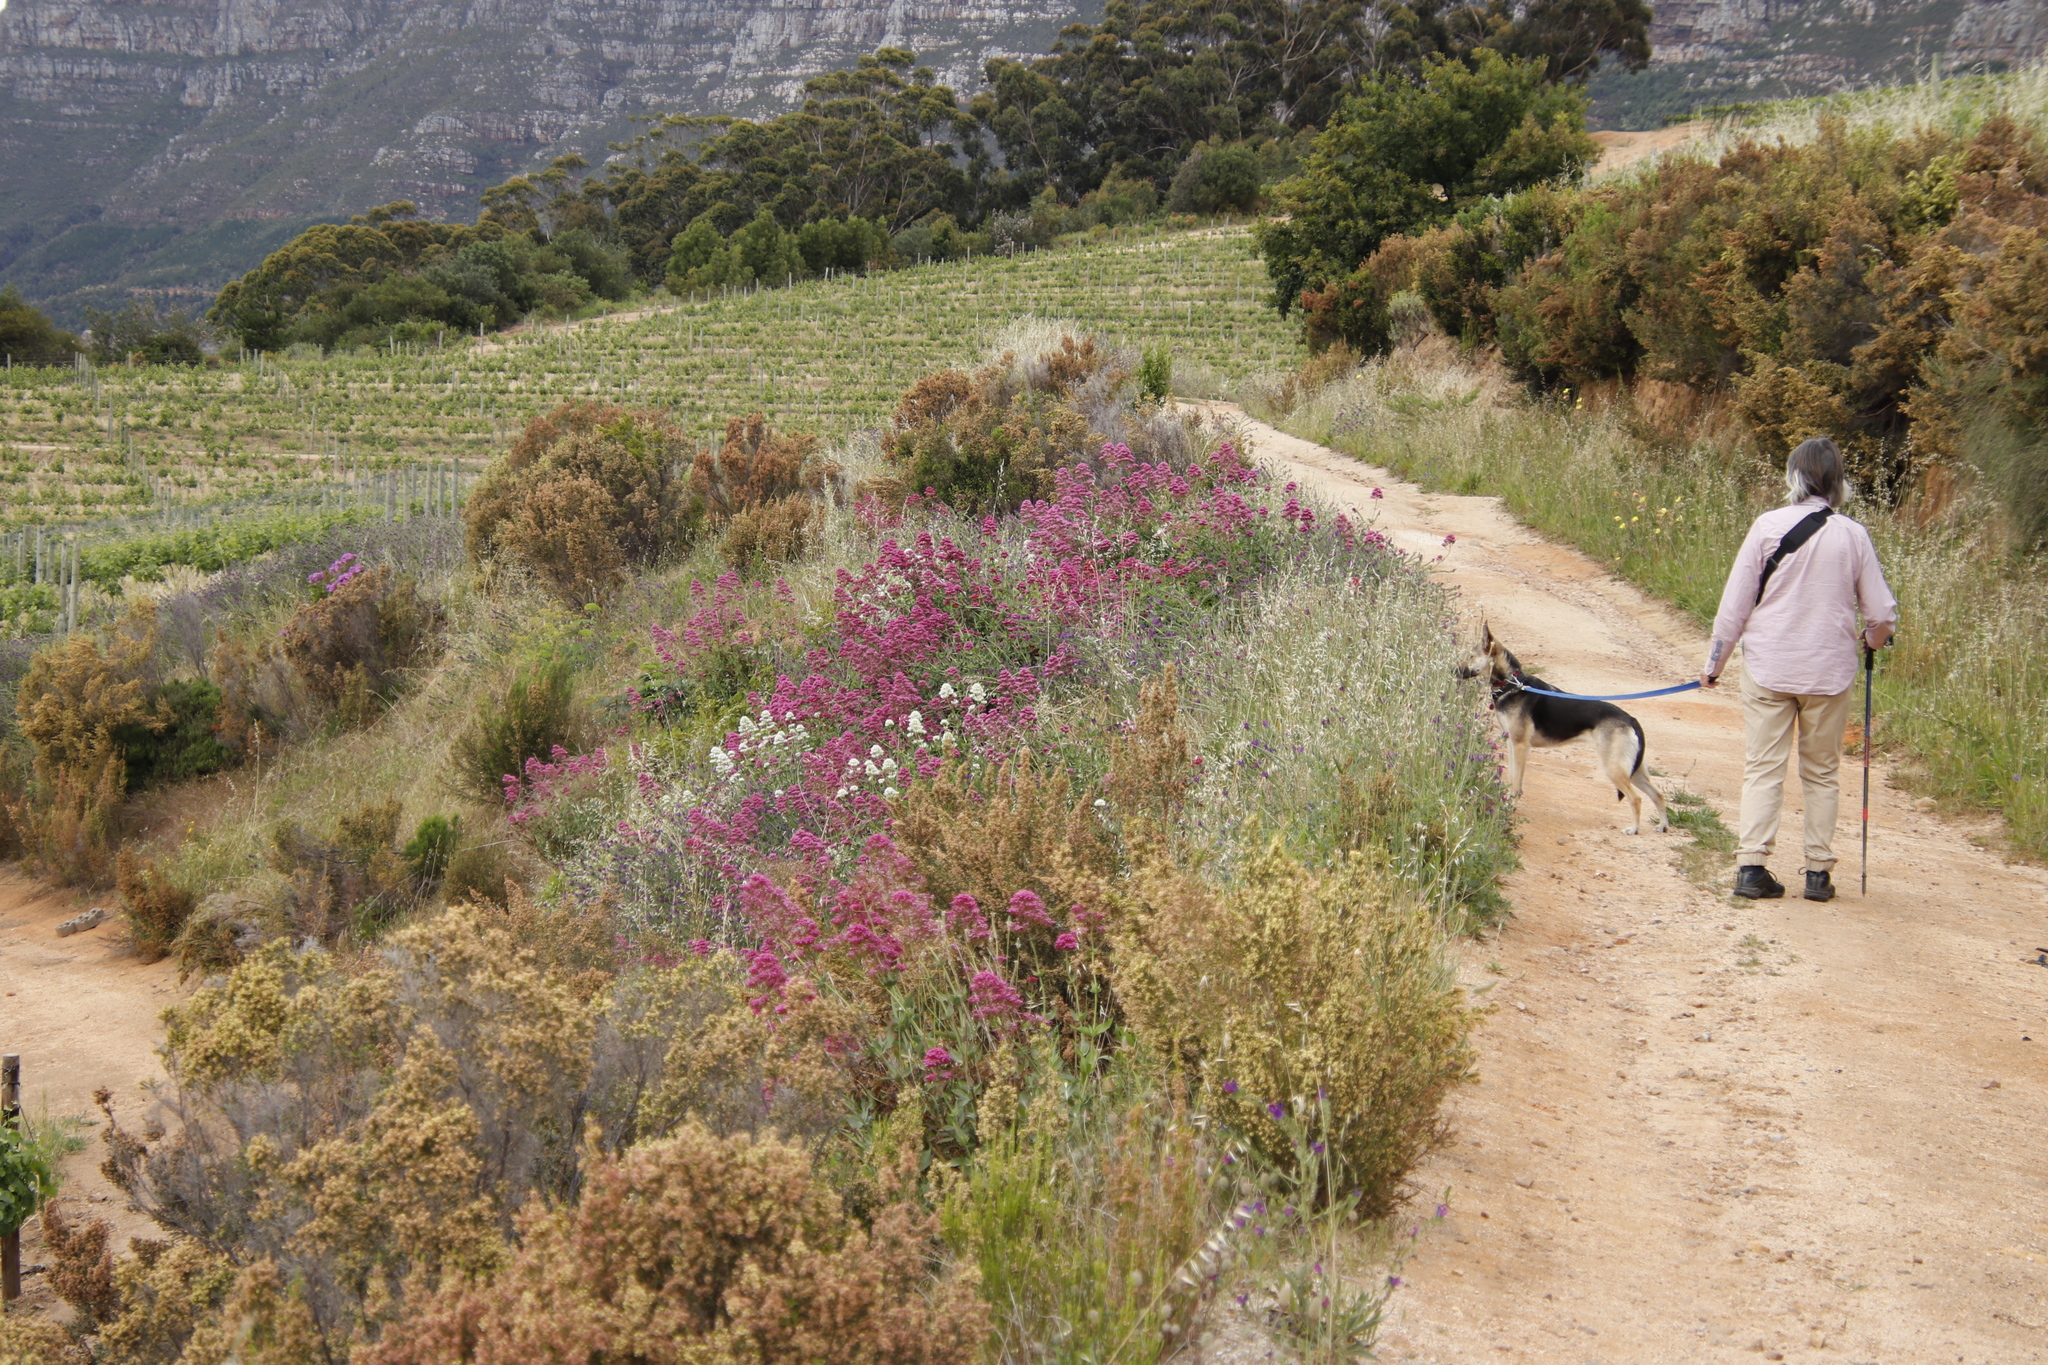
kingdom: Plantae
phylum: Tracheophyta
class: Magnoliopsida
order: Dipsacales
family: Caprifoliaceae
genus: Centranthus
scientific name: Centranthus ruber
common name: Red valerian
